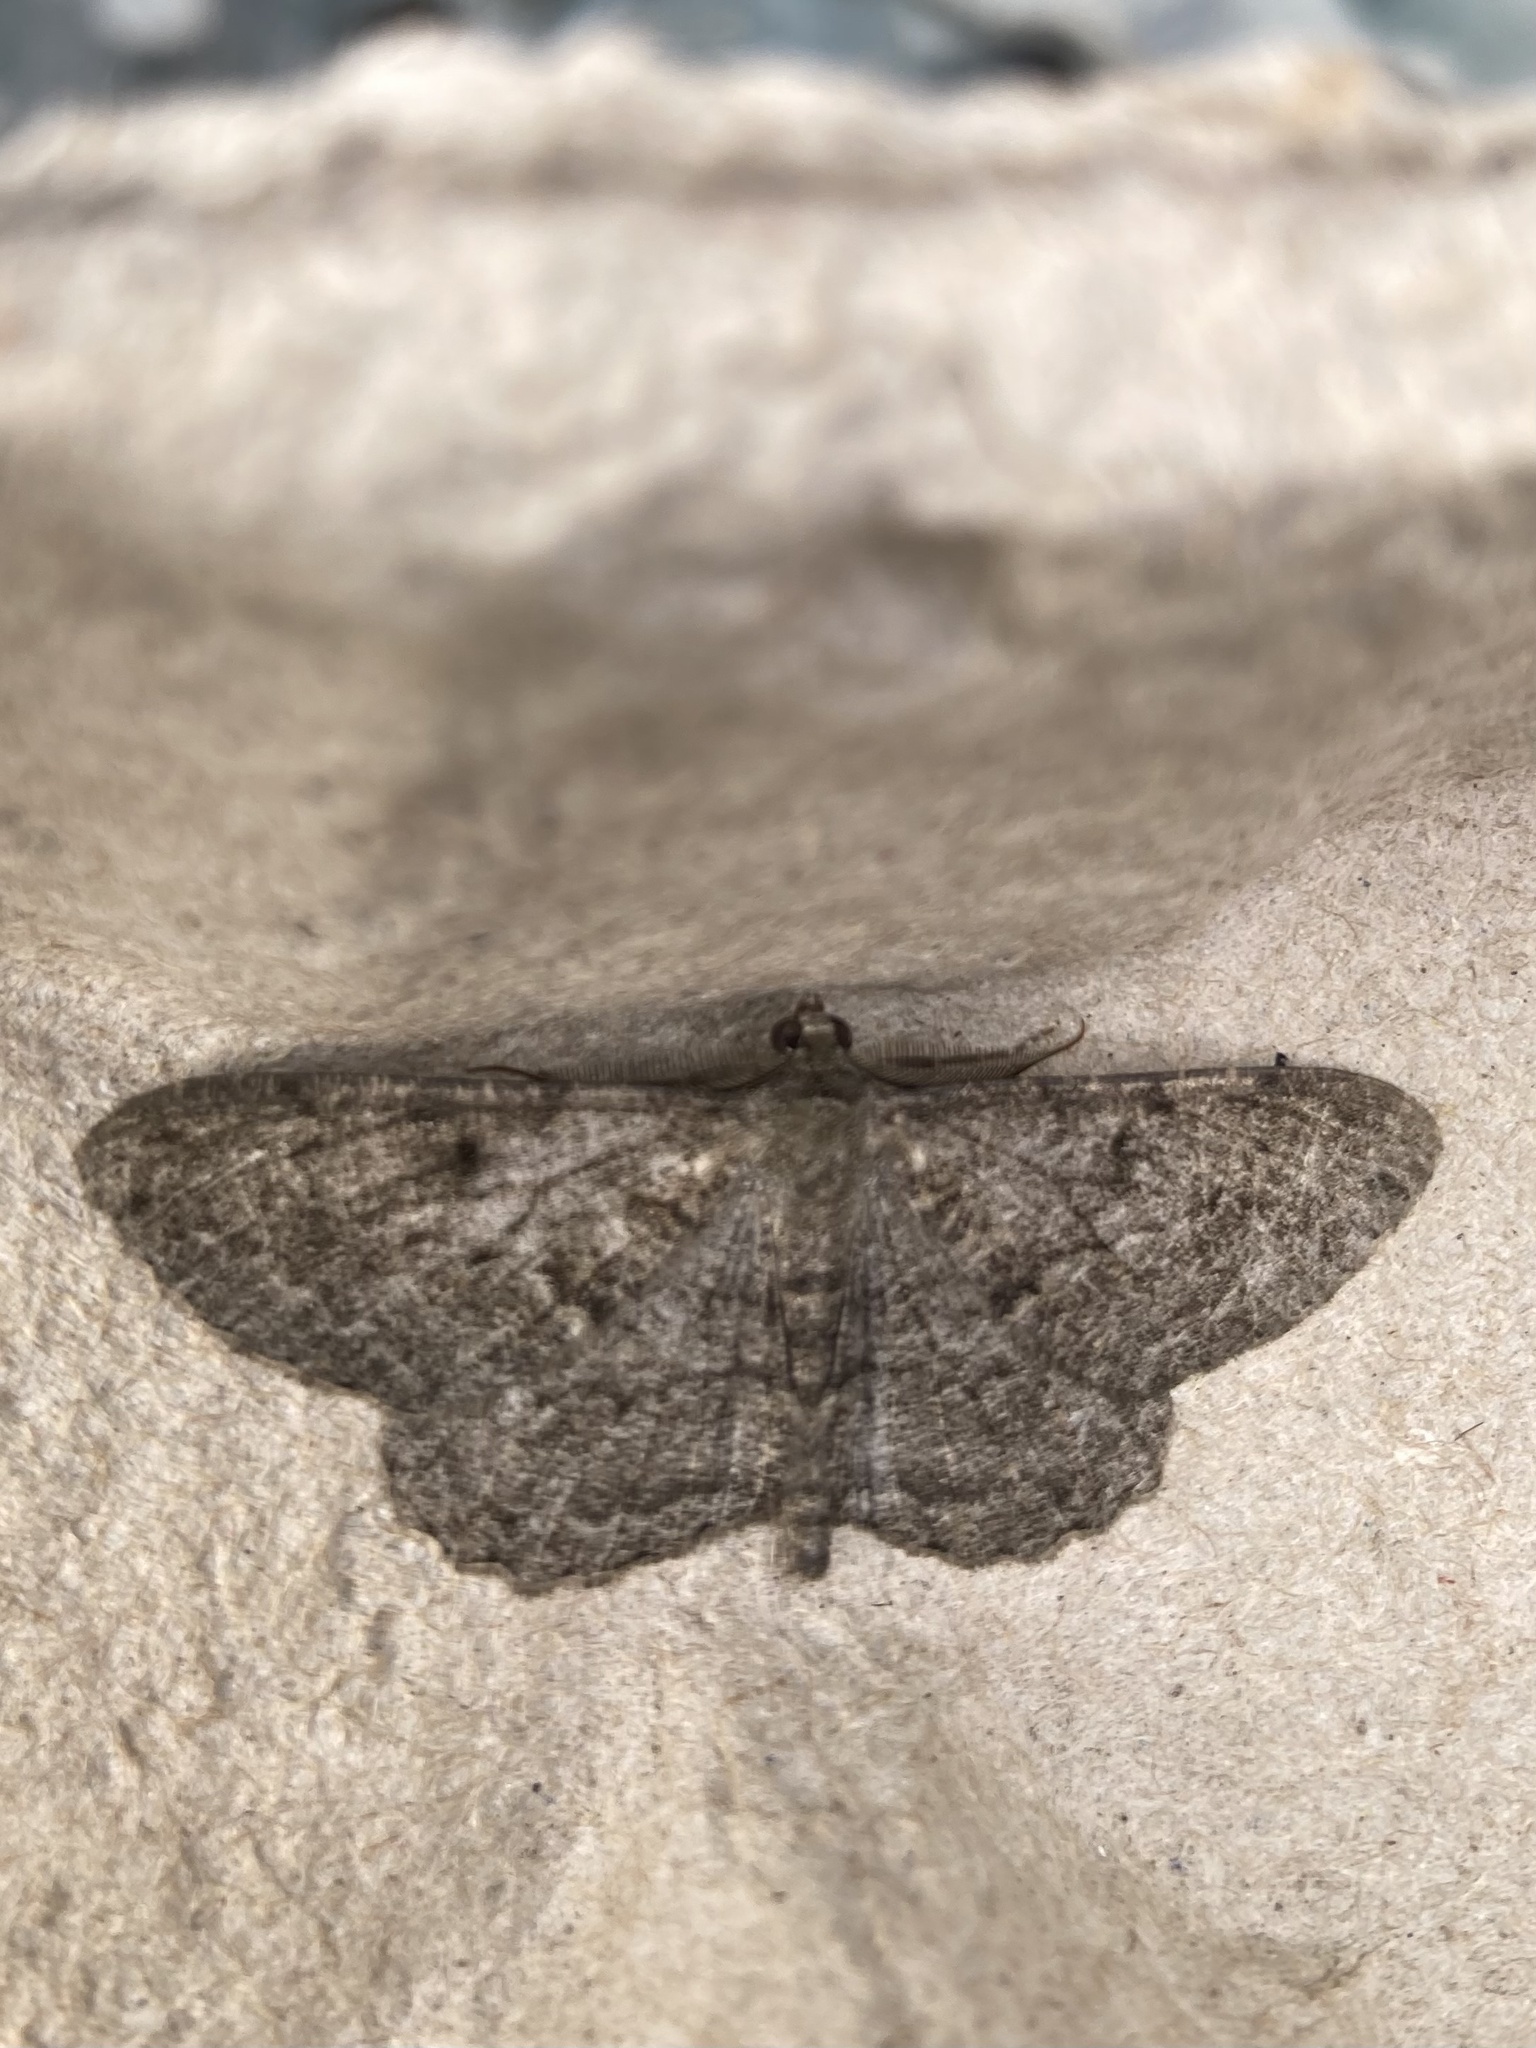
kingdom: Animalia
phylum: Arthropoda
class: Insecta
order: Lepidoptera
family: Geometridae
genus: Peribatodes
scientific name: Peribatodes rhomboidaria
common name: Willow beauty
